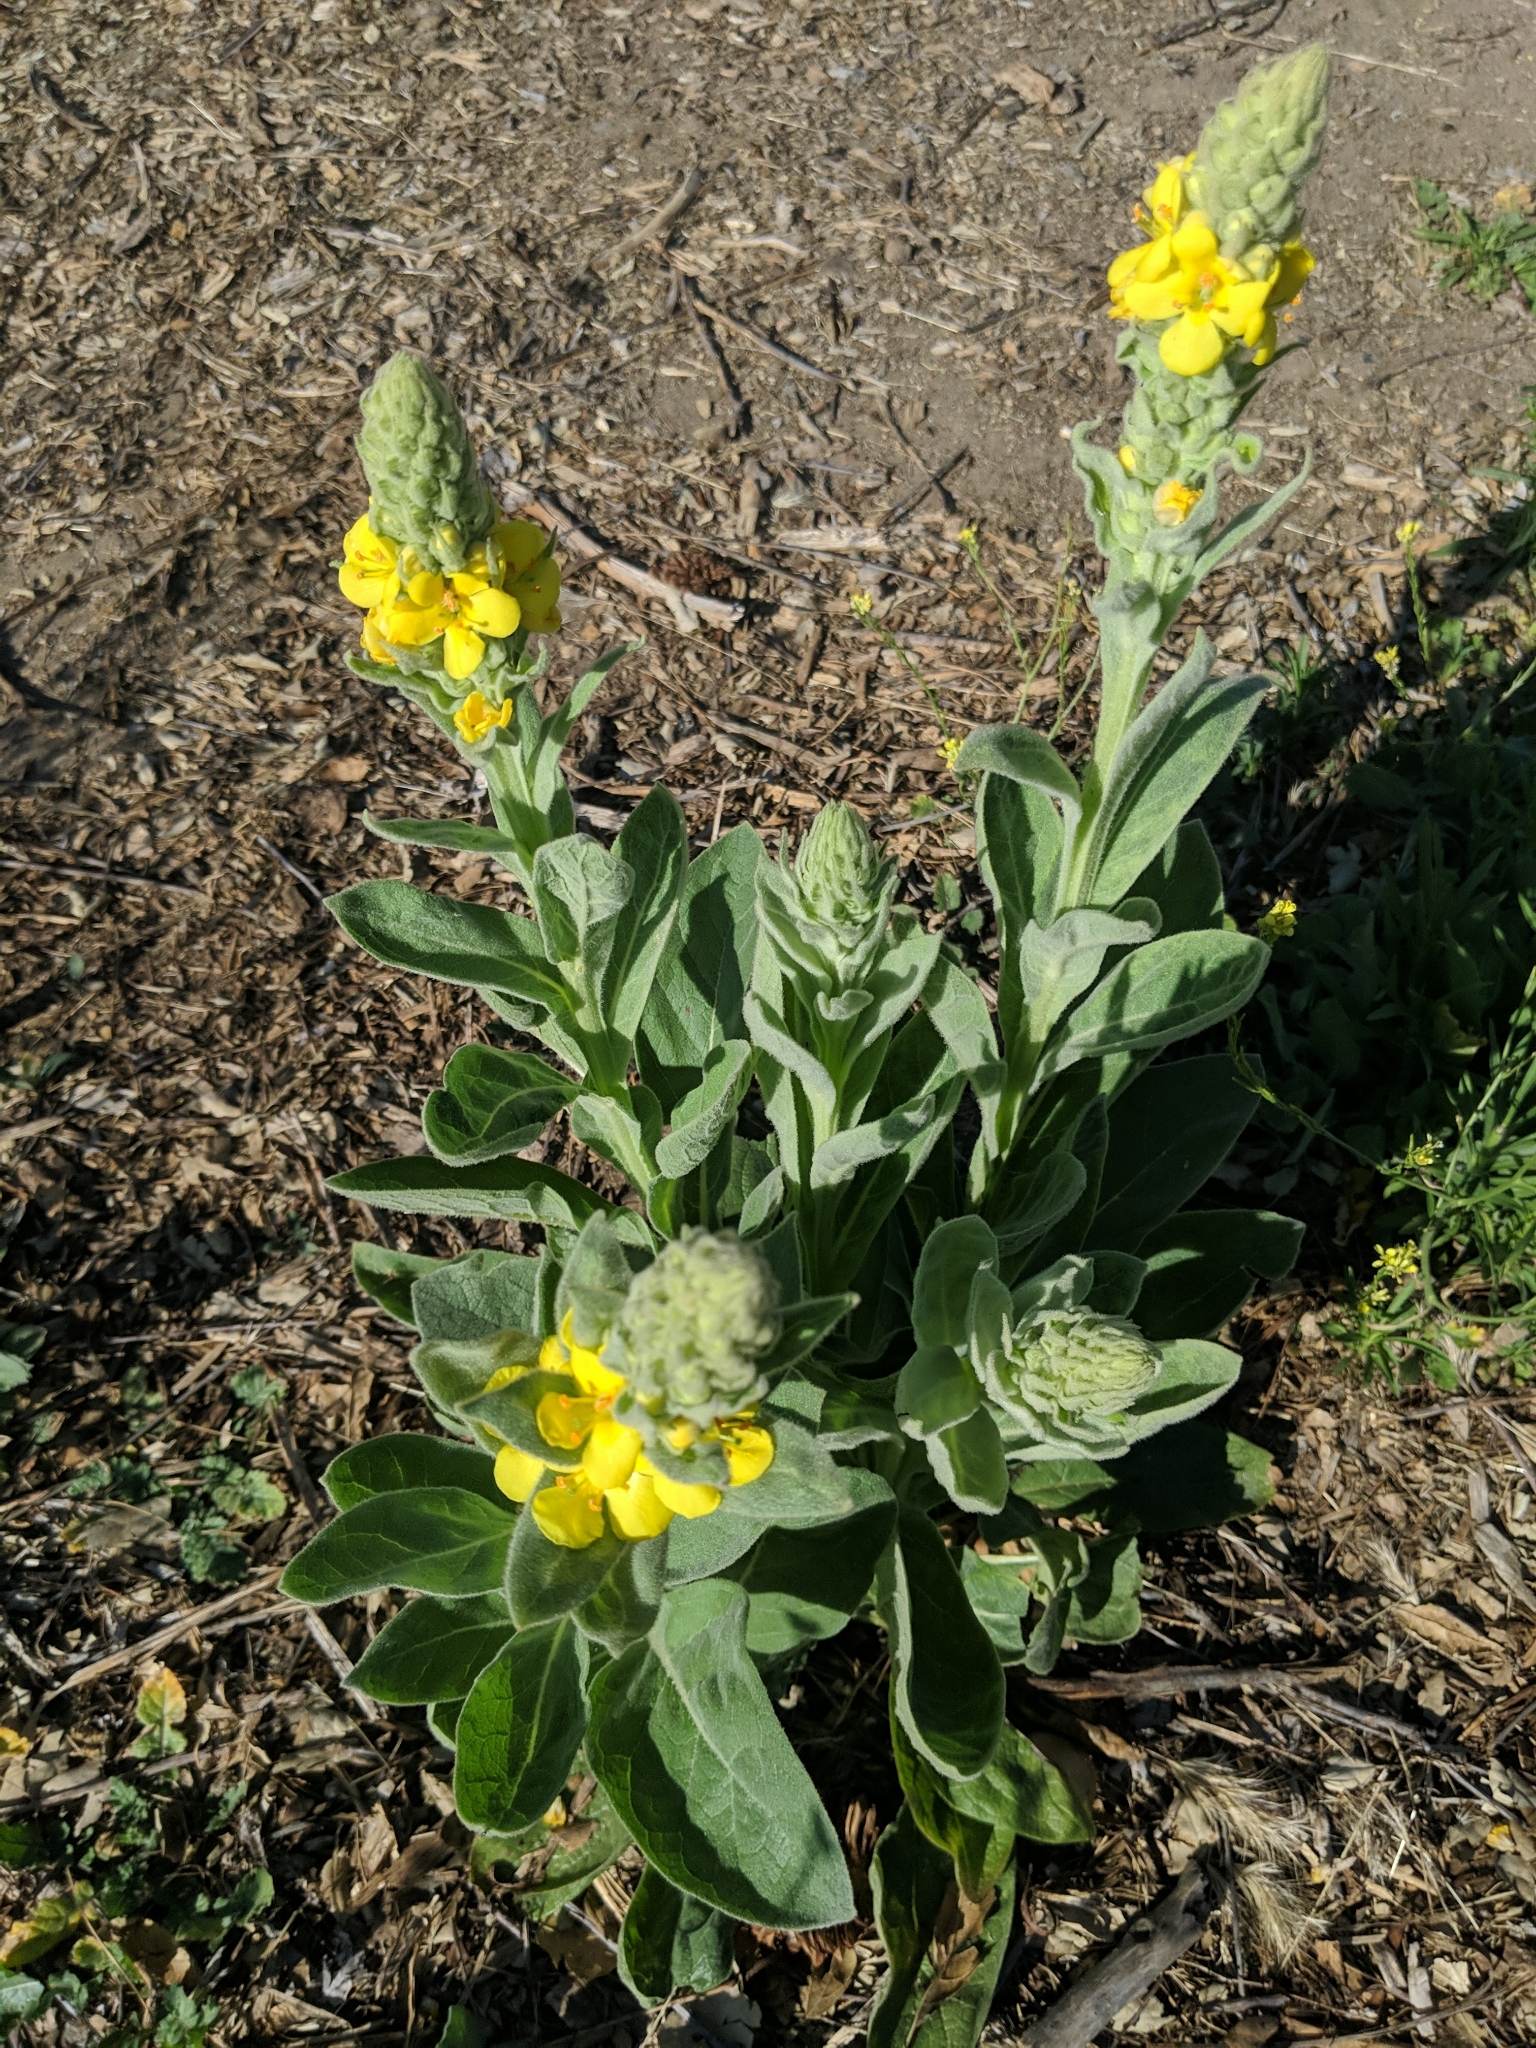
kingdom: Plantae
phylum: Tracheophyta
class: Magnoliopsida
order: Lamiales
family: Scrophulariaceae
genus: Verbascum
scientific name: Verbascum thapsus
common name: Common mullein
